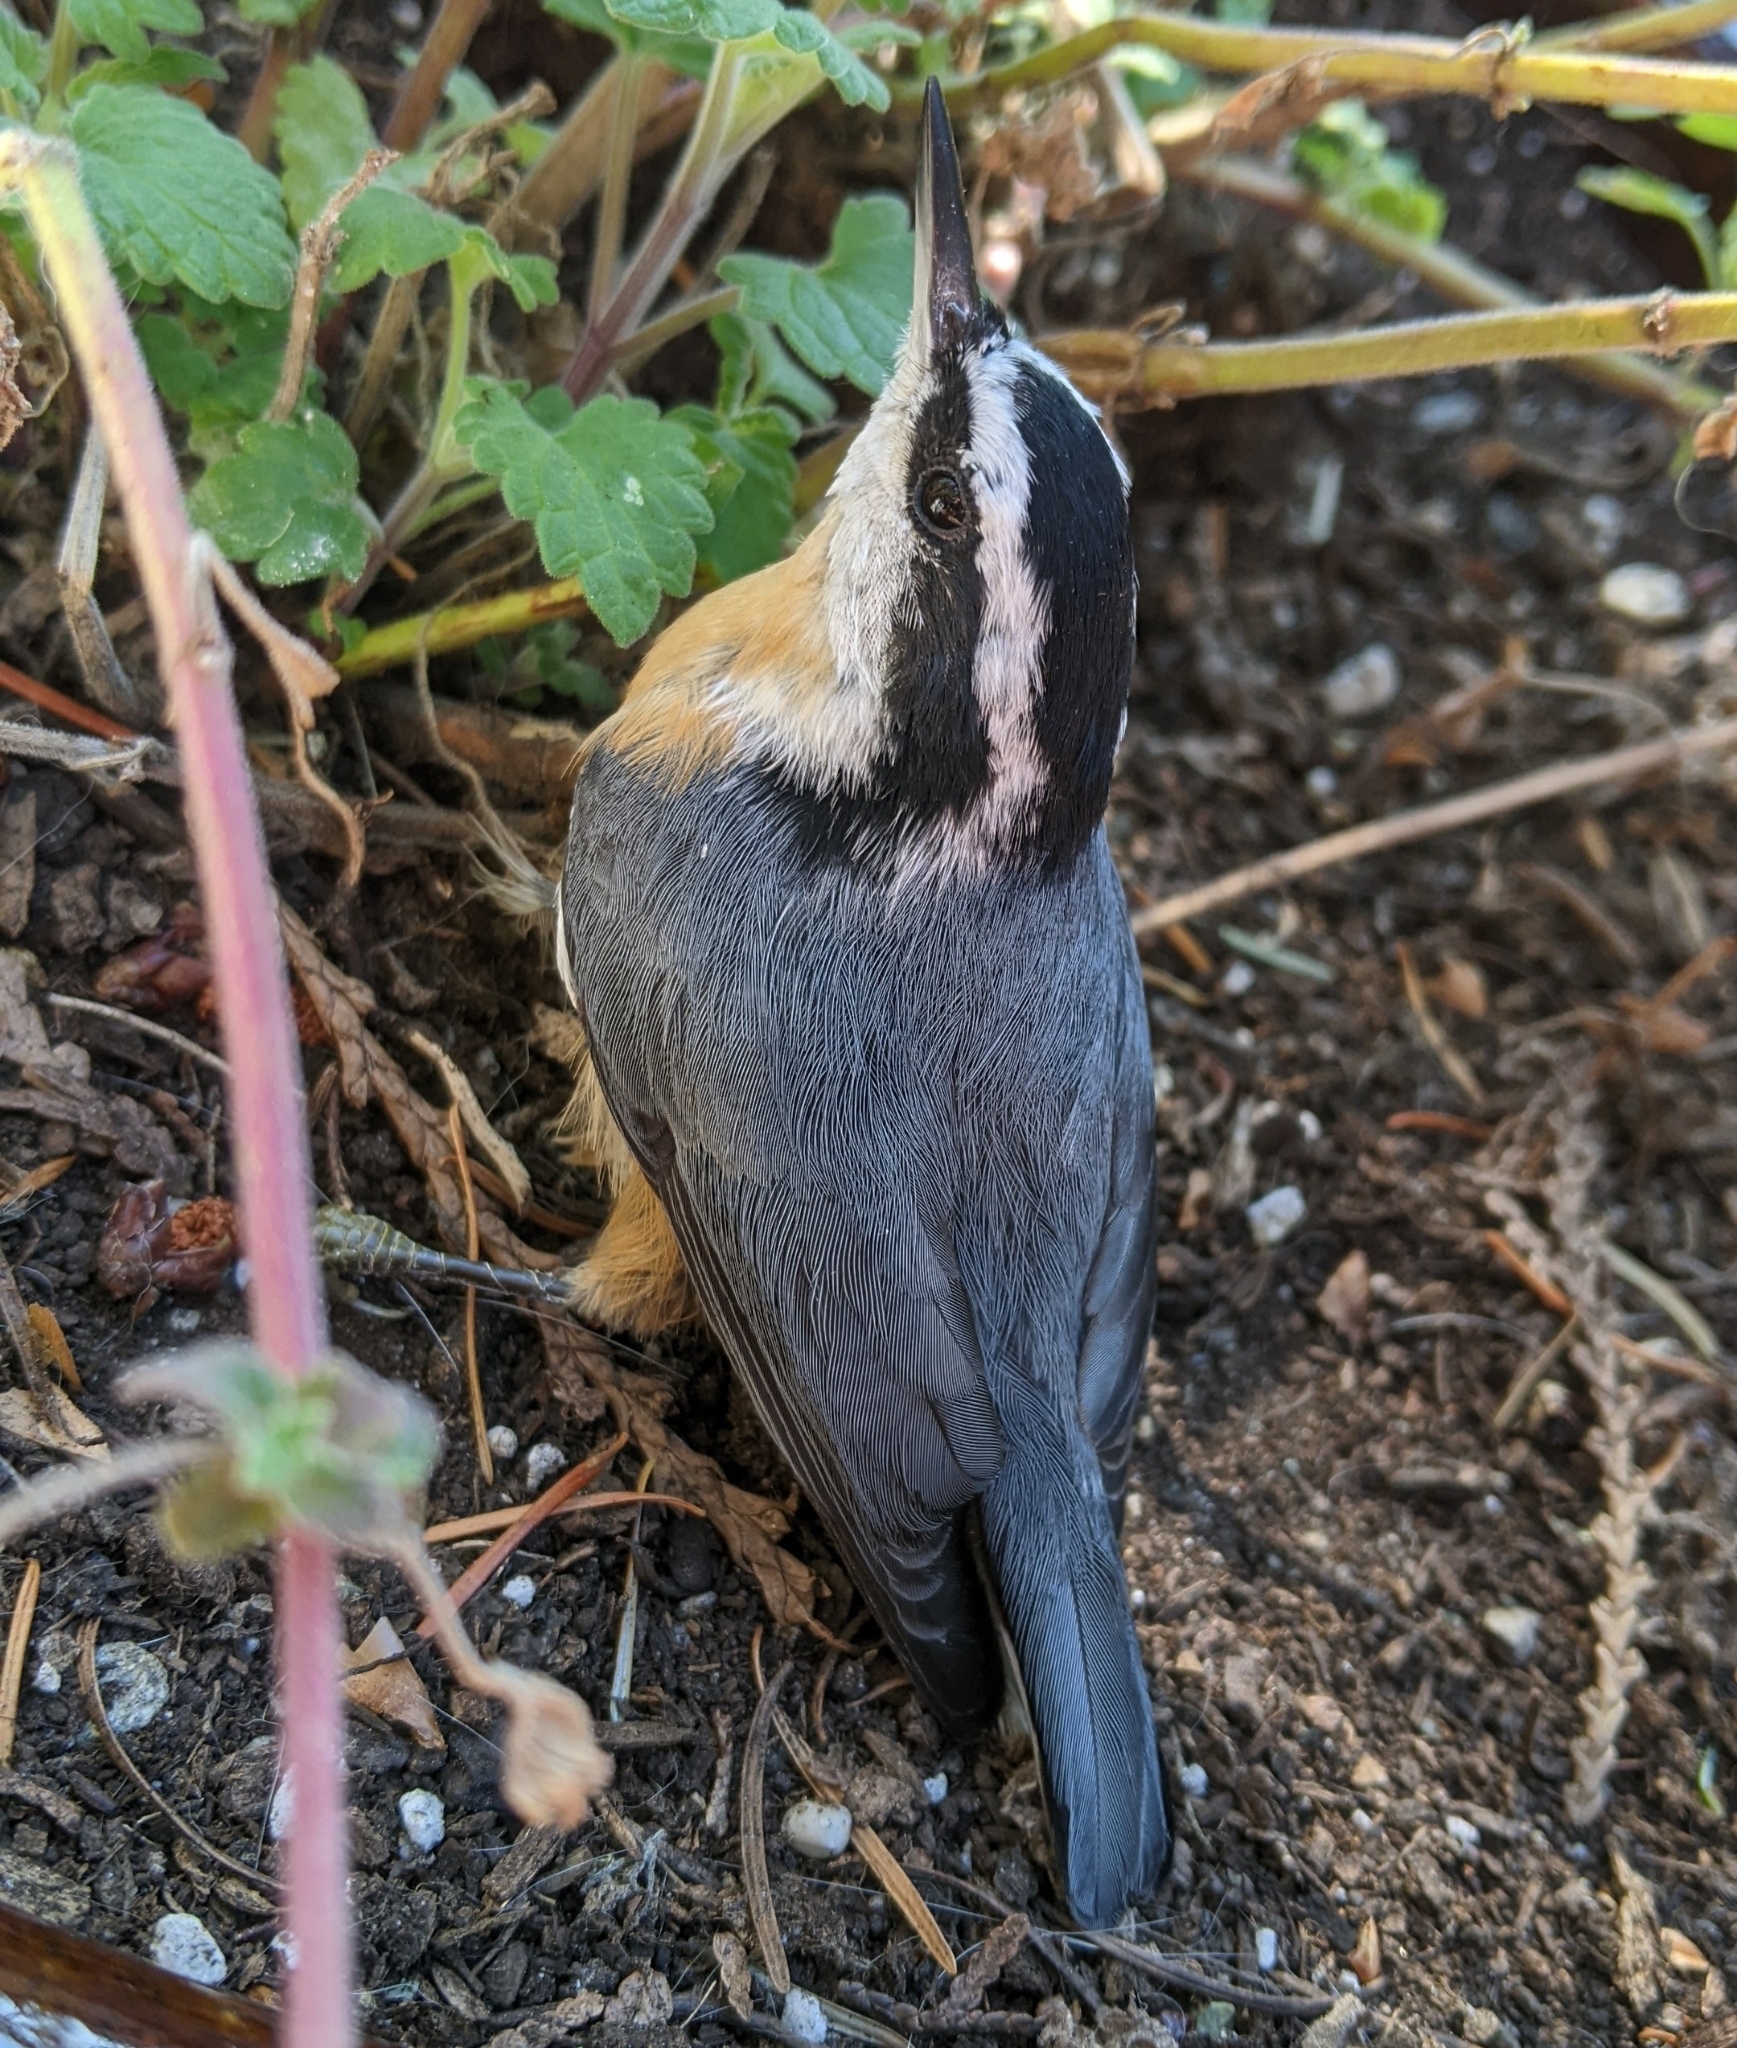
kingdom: Animalia
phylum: Chordata
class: Aves
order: Passeriformes
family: Sittidae
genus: Sitta
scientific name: Sitta canadensis
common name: Red-breasted nuthatch
